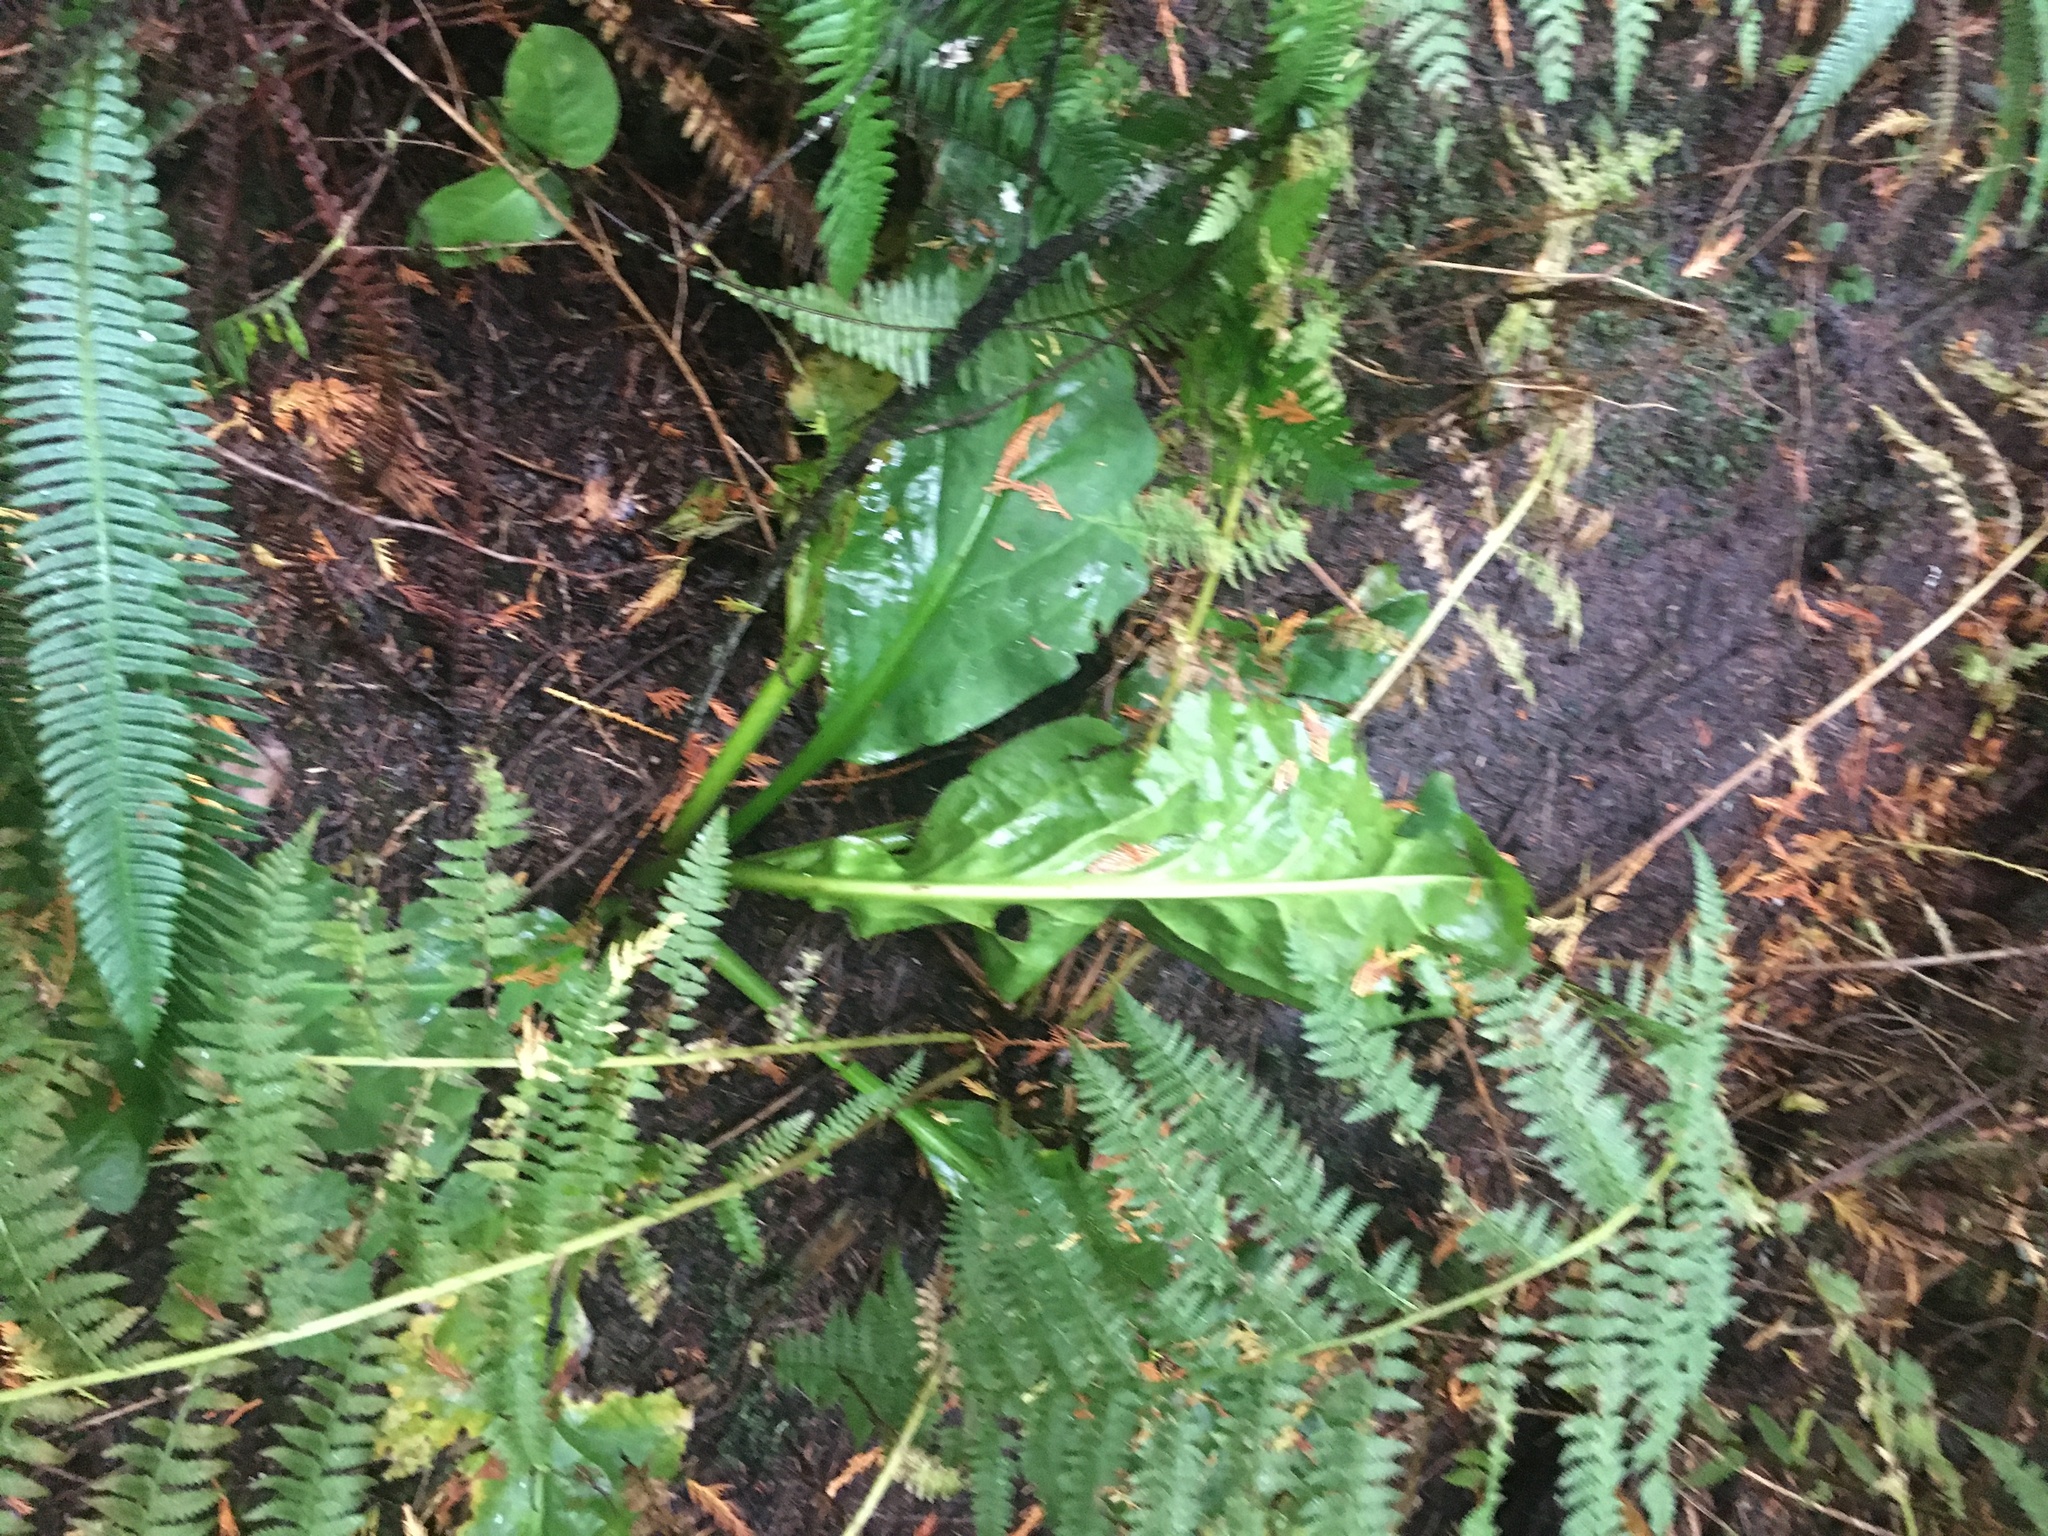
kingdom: Plantae
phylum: Tracheophyta
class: Liliopsida
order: Alismatales
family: Araceae
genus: Lysichiton
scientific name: Lysichiton americanus
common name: American skunk cabbage
